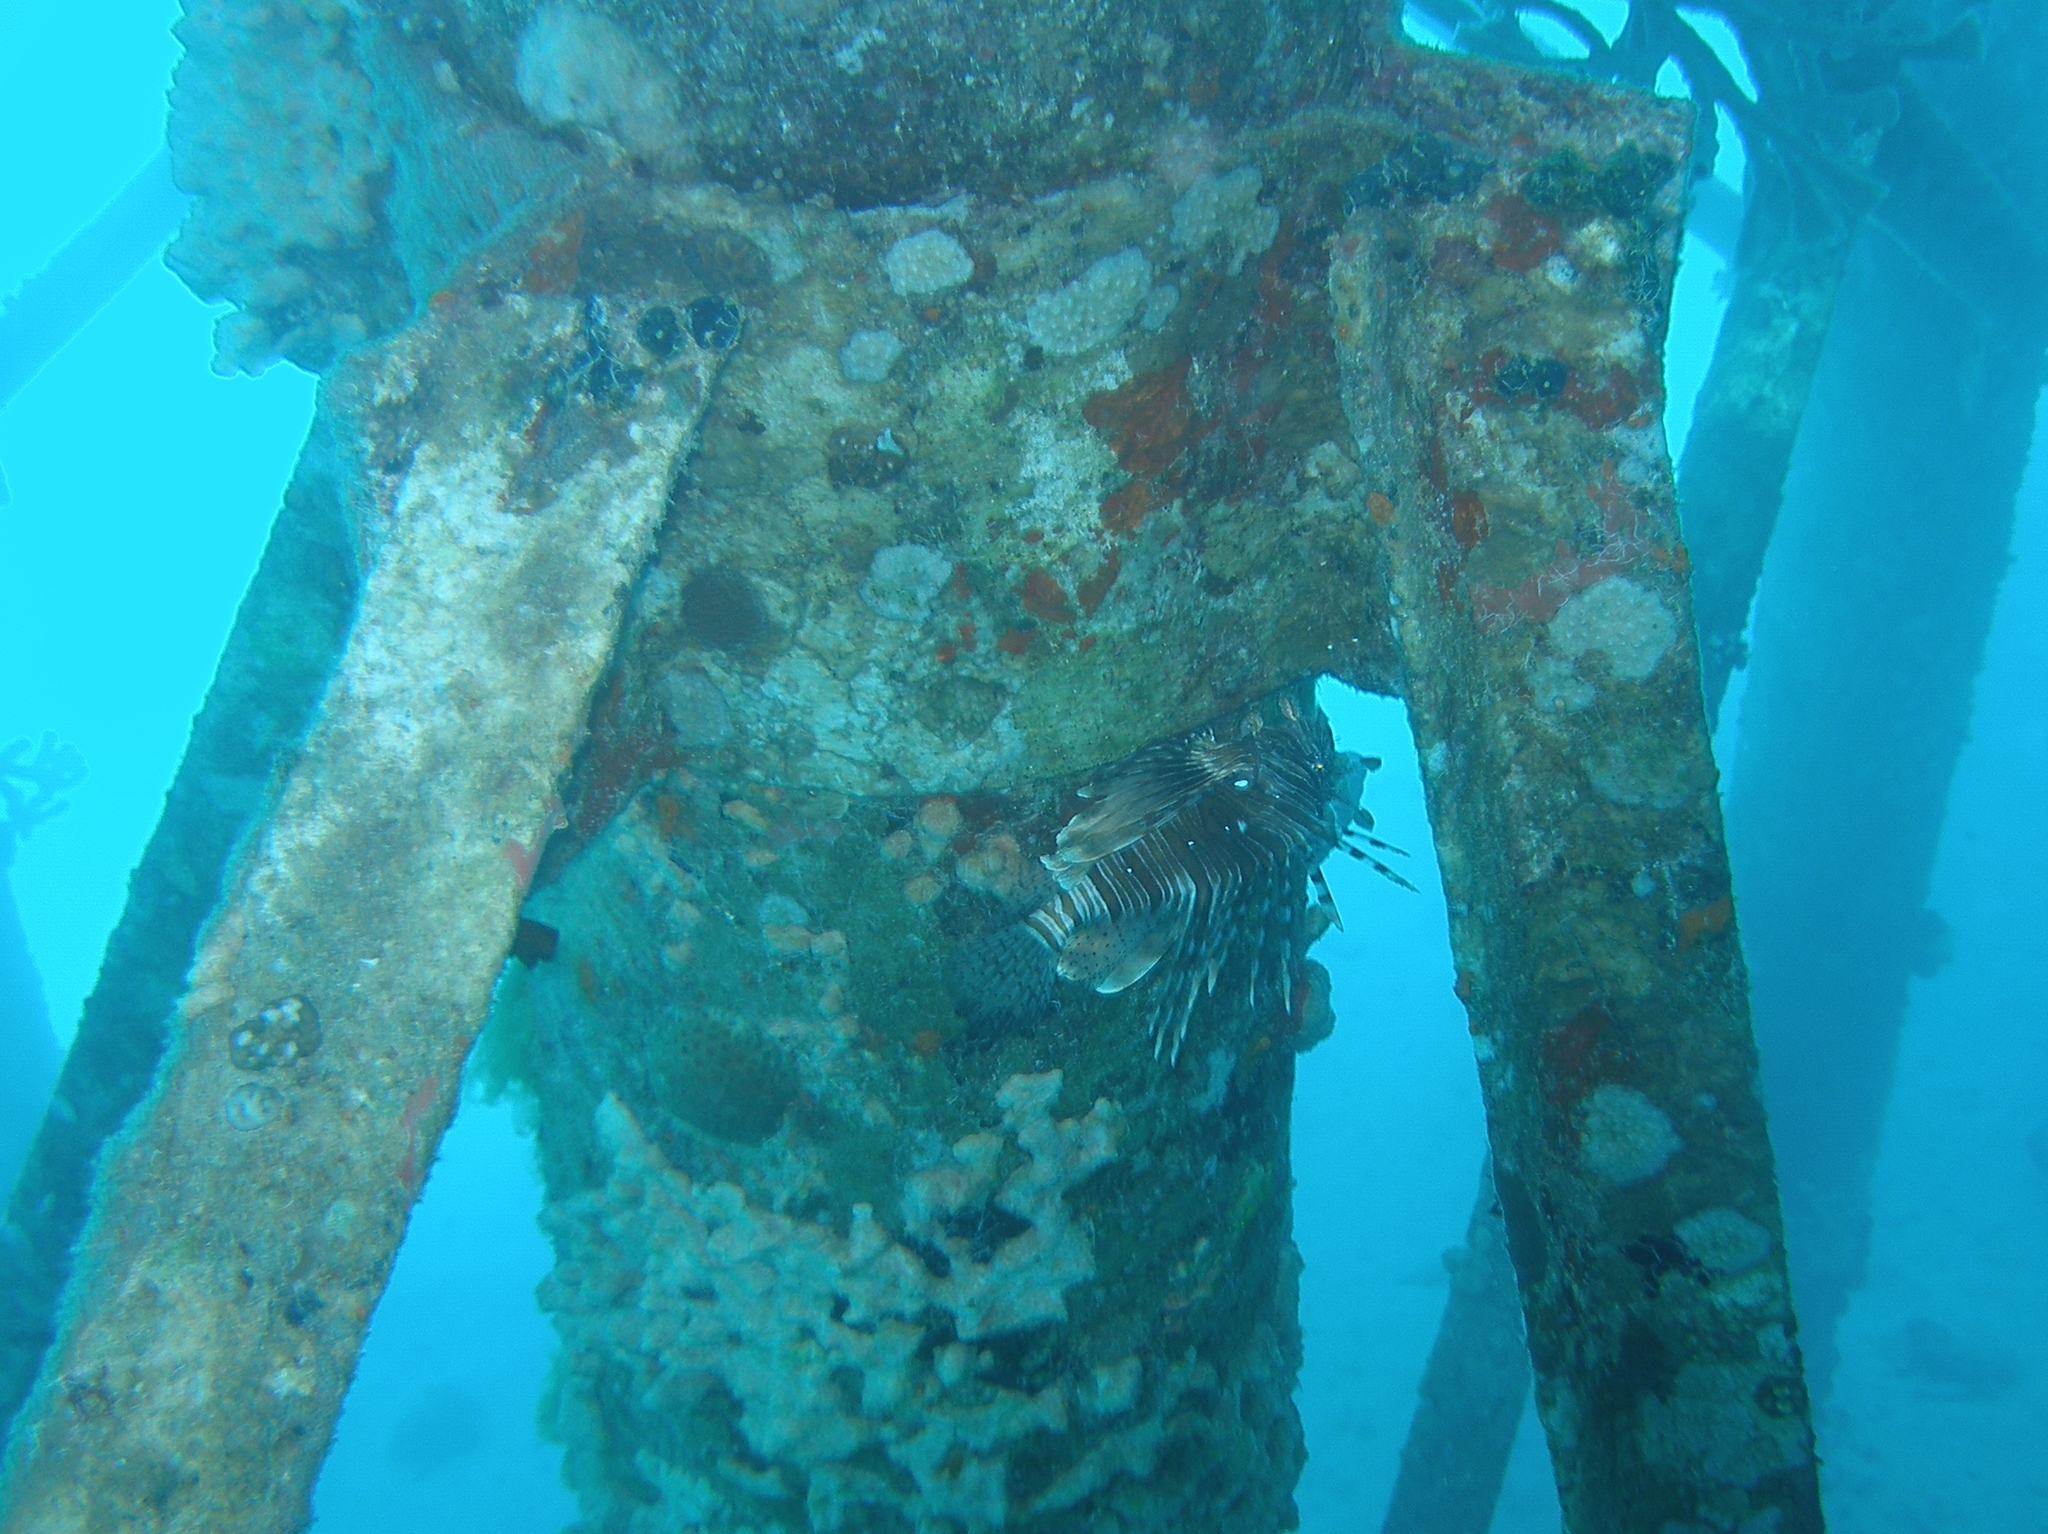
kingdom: Animalia
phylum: Chordata
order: Scorpaeniformes
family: Scorpaenidae
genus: Pterois
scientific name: Pterois miles
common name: Devil firefish
